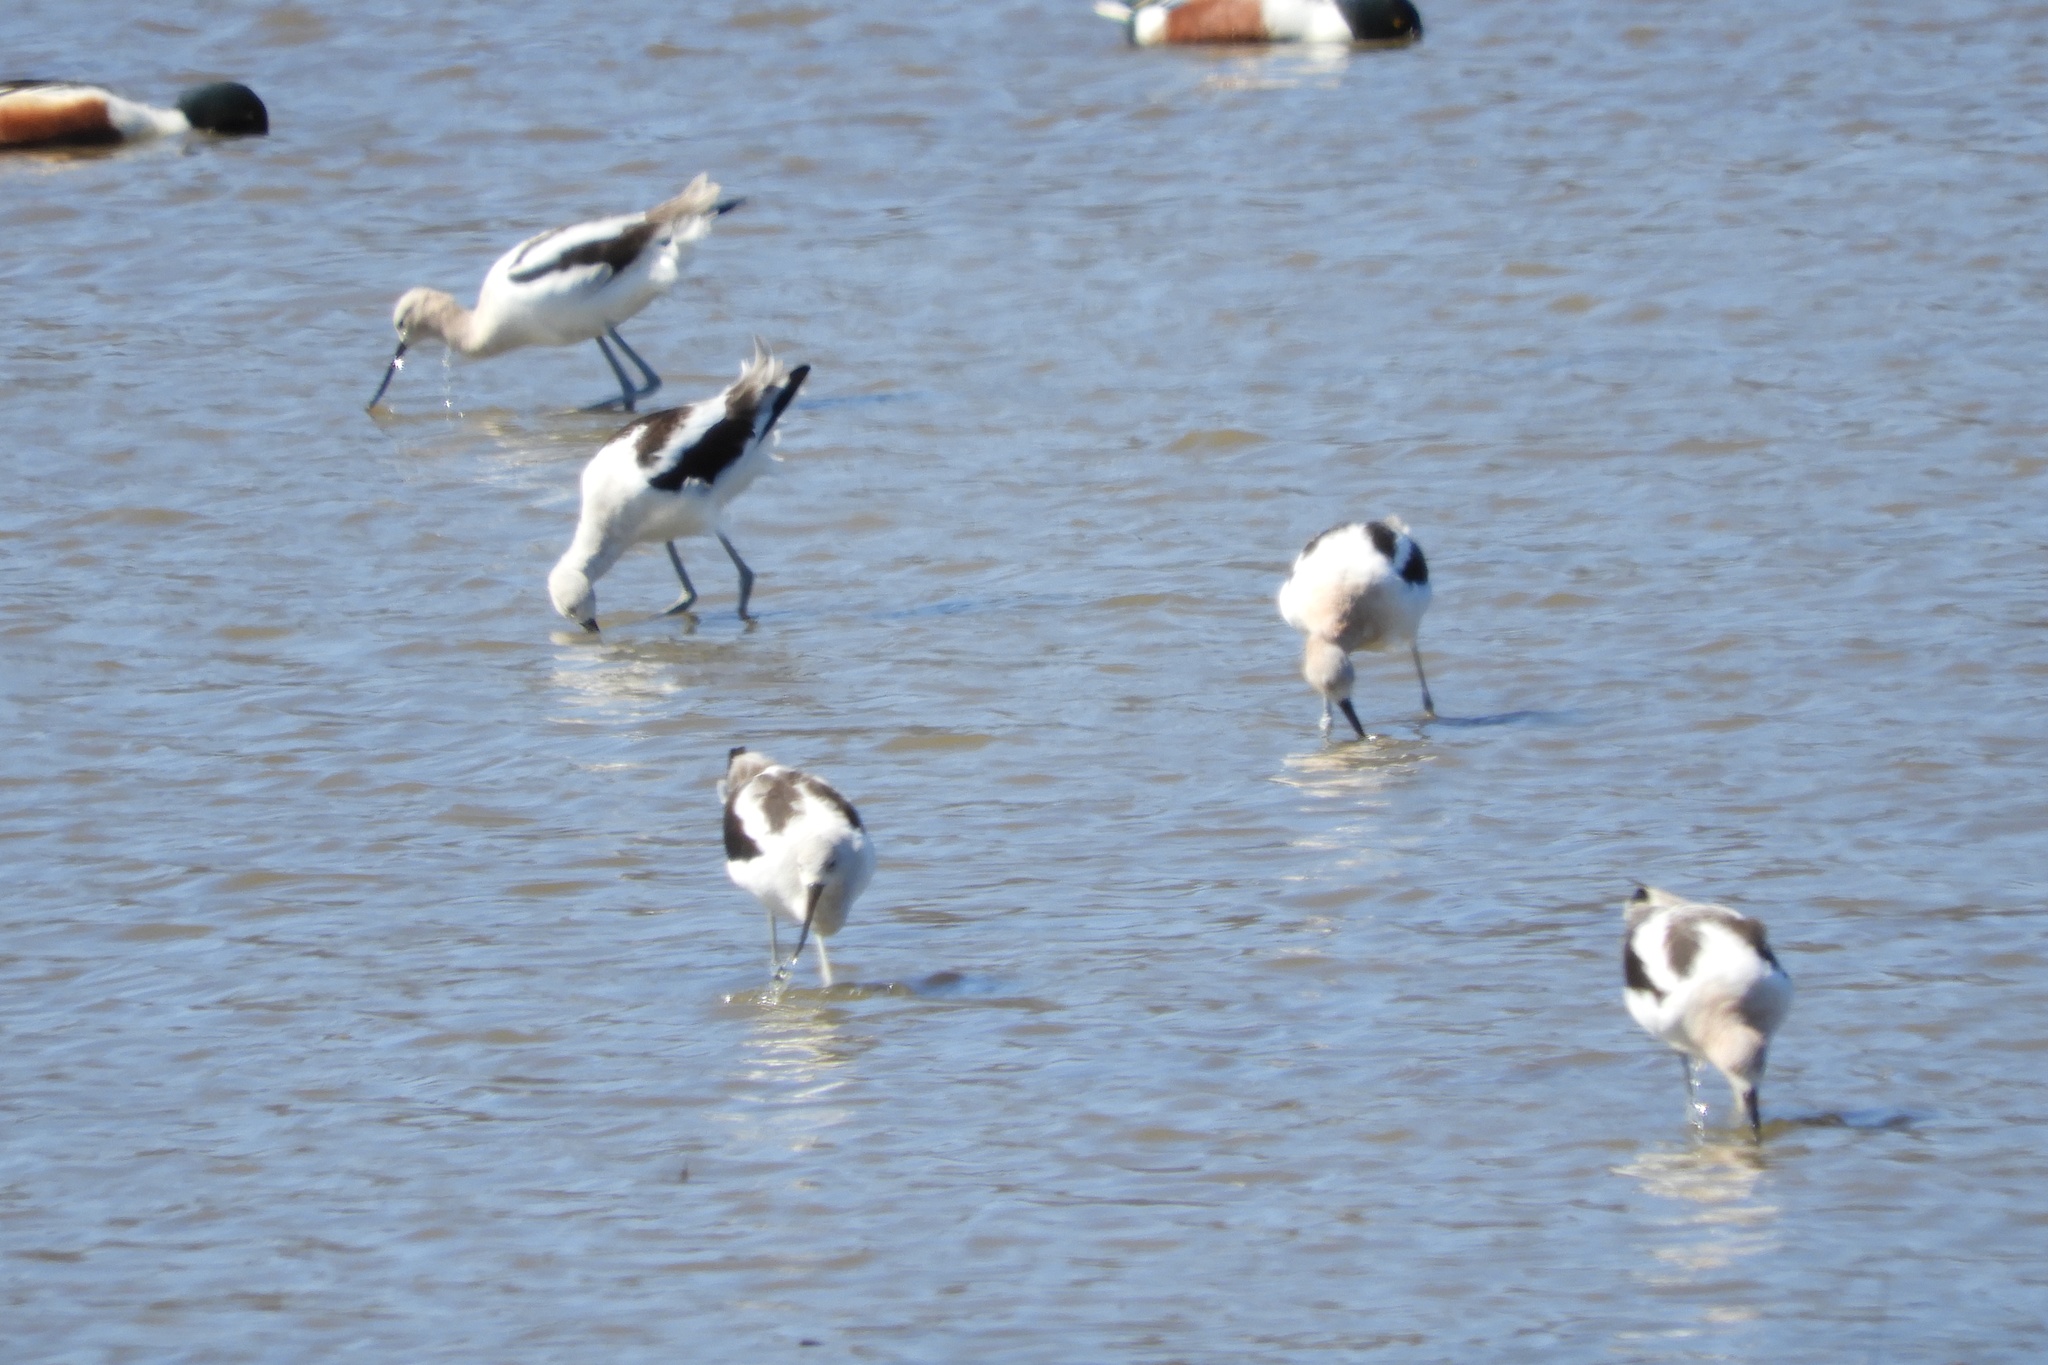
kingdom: Animalia
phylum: Chordata
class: Aves
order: Charadriiformes
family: Recurvirostridae
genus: Recurvirostra
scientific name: Recurvirostra americana
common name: American avocet
